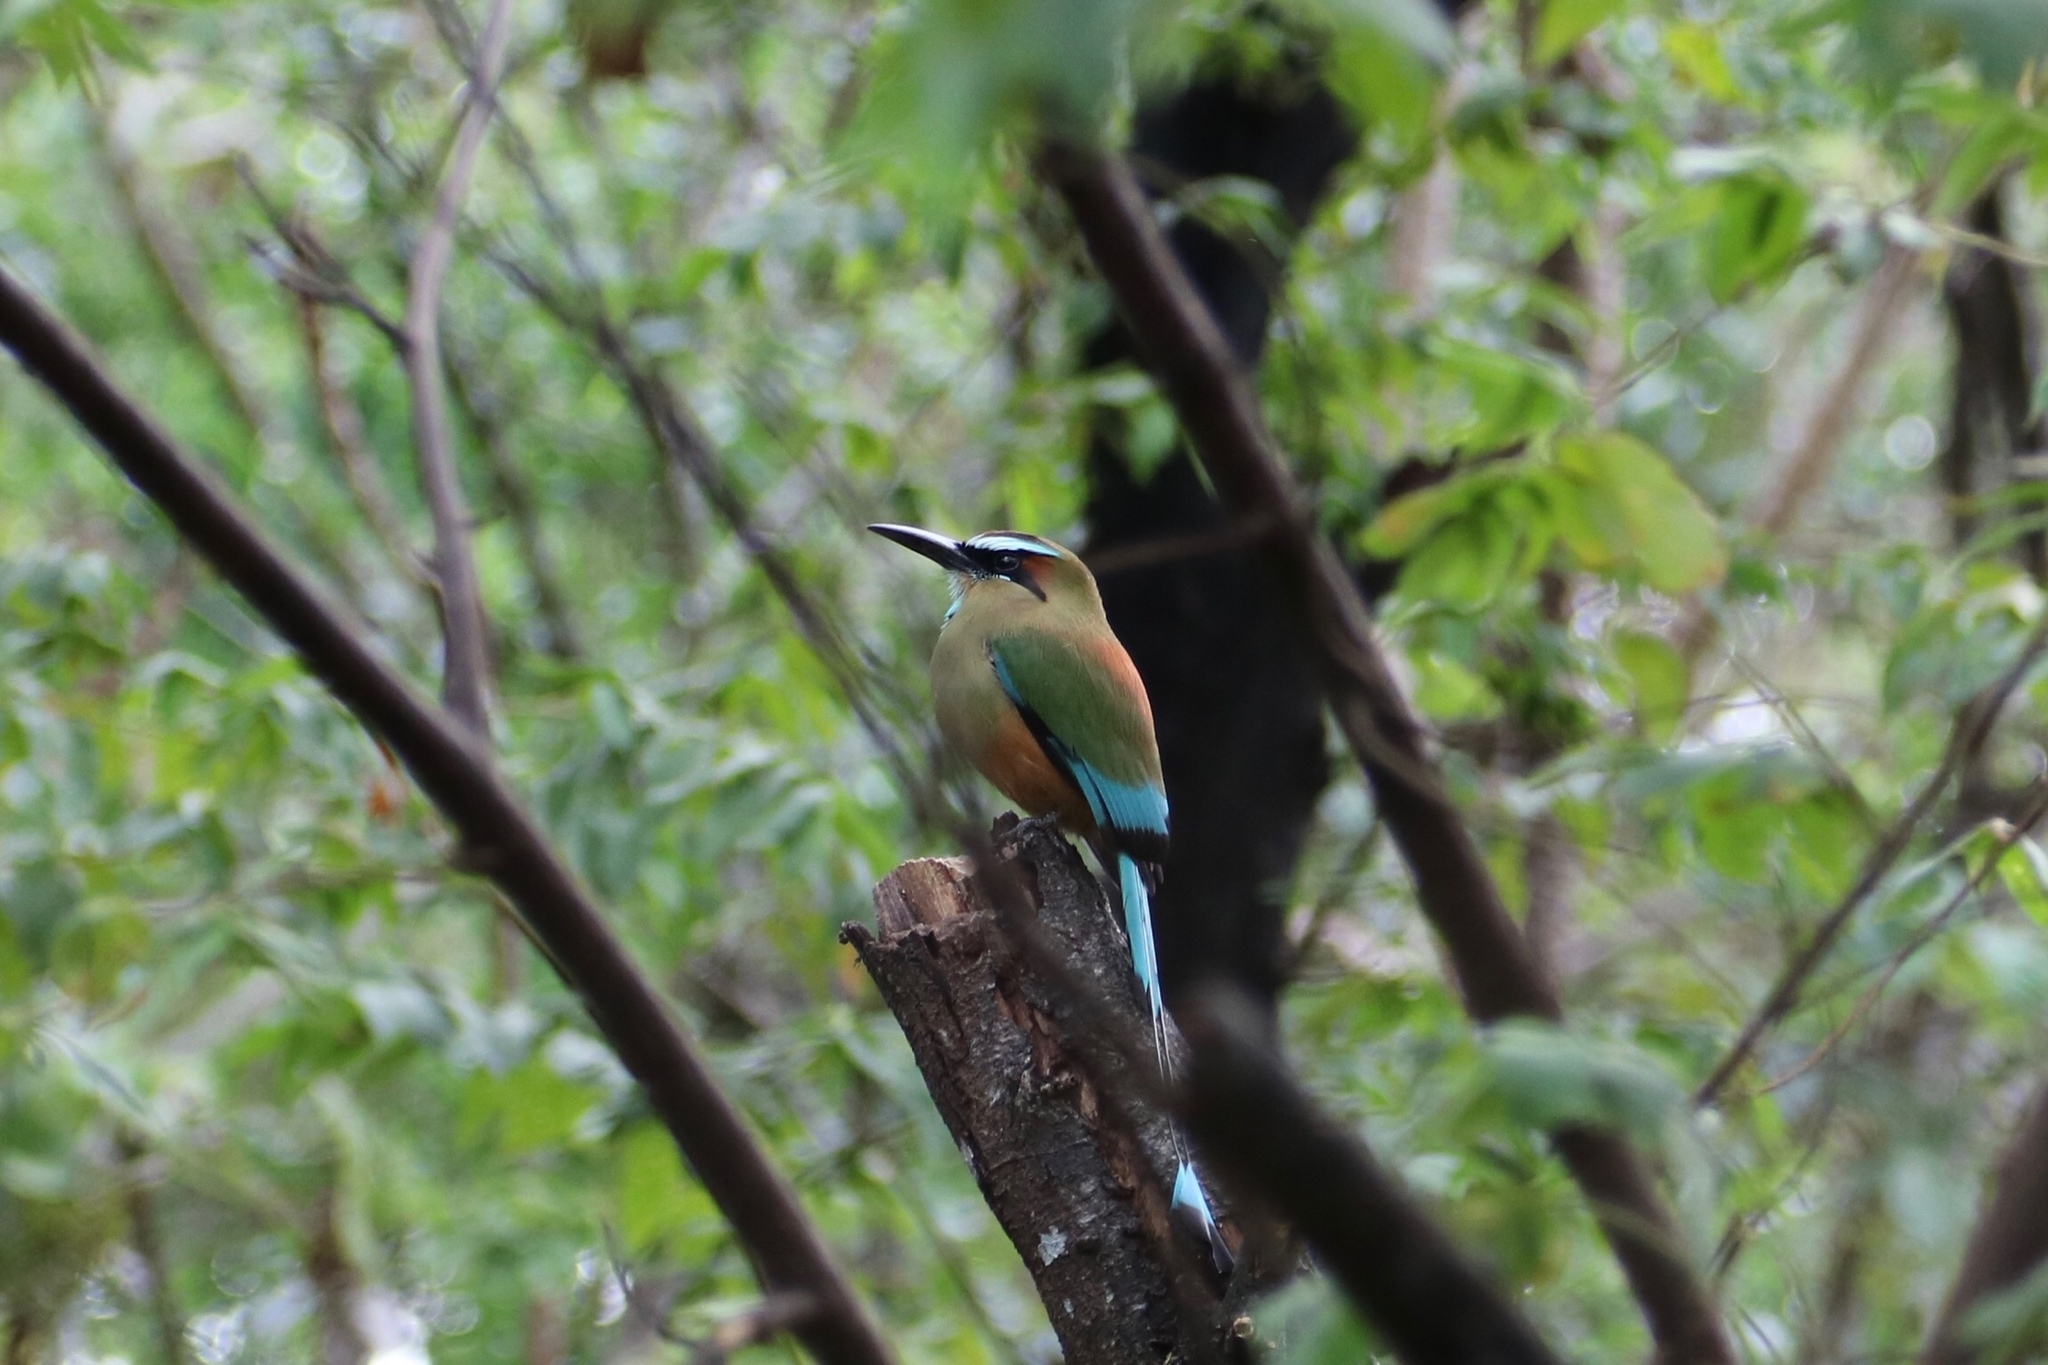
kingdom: Animalia
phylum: Chordata
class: Aves
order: Coraciiformes
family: Momotidae
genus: Eumomota
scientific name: Eumomota superciliosa
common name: Turquoise-browed motmot
